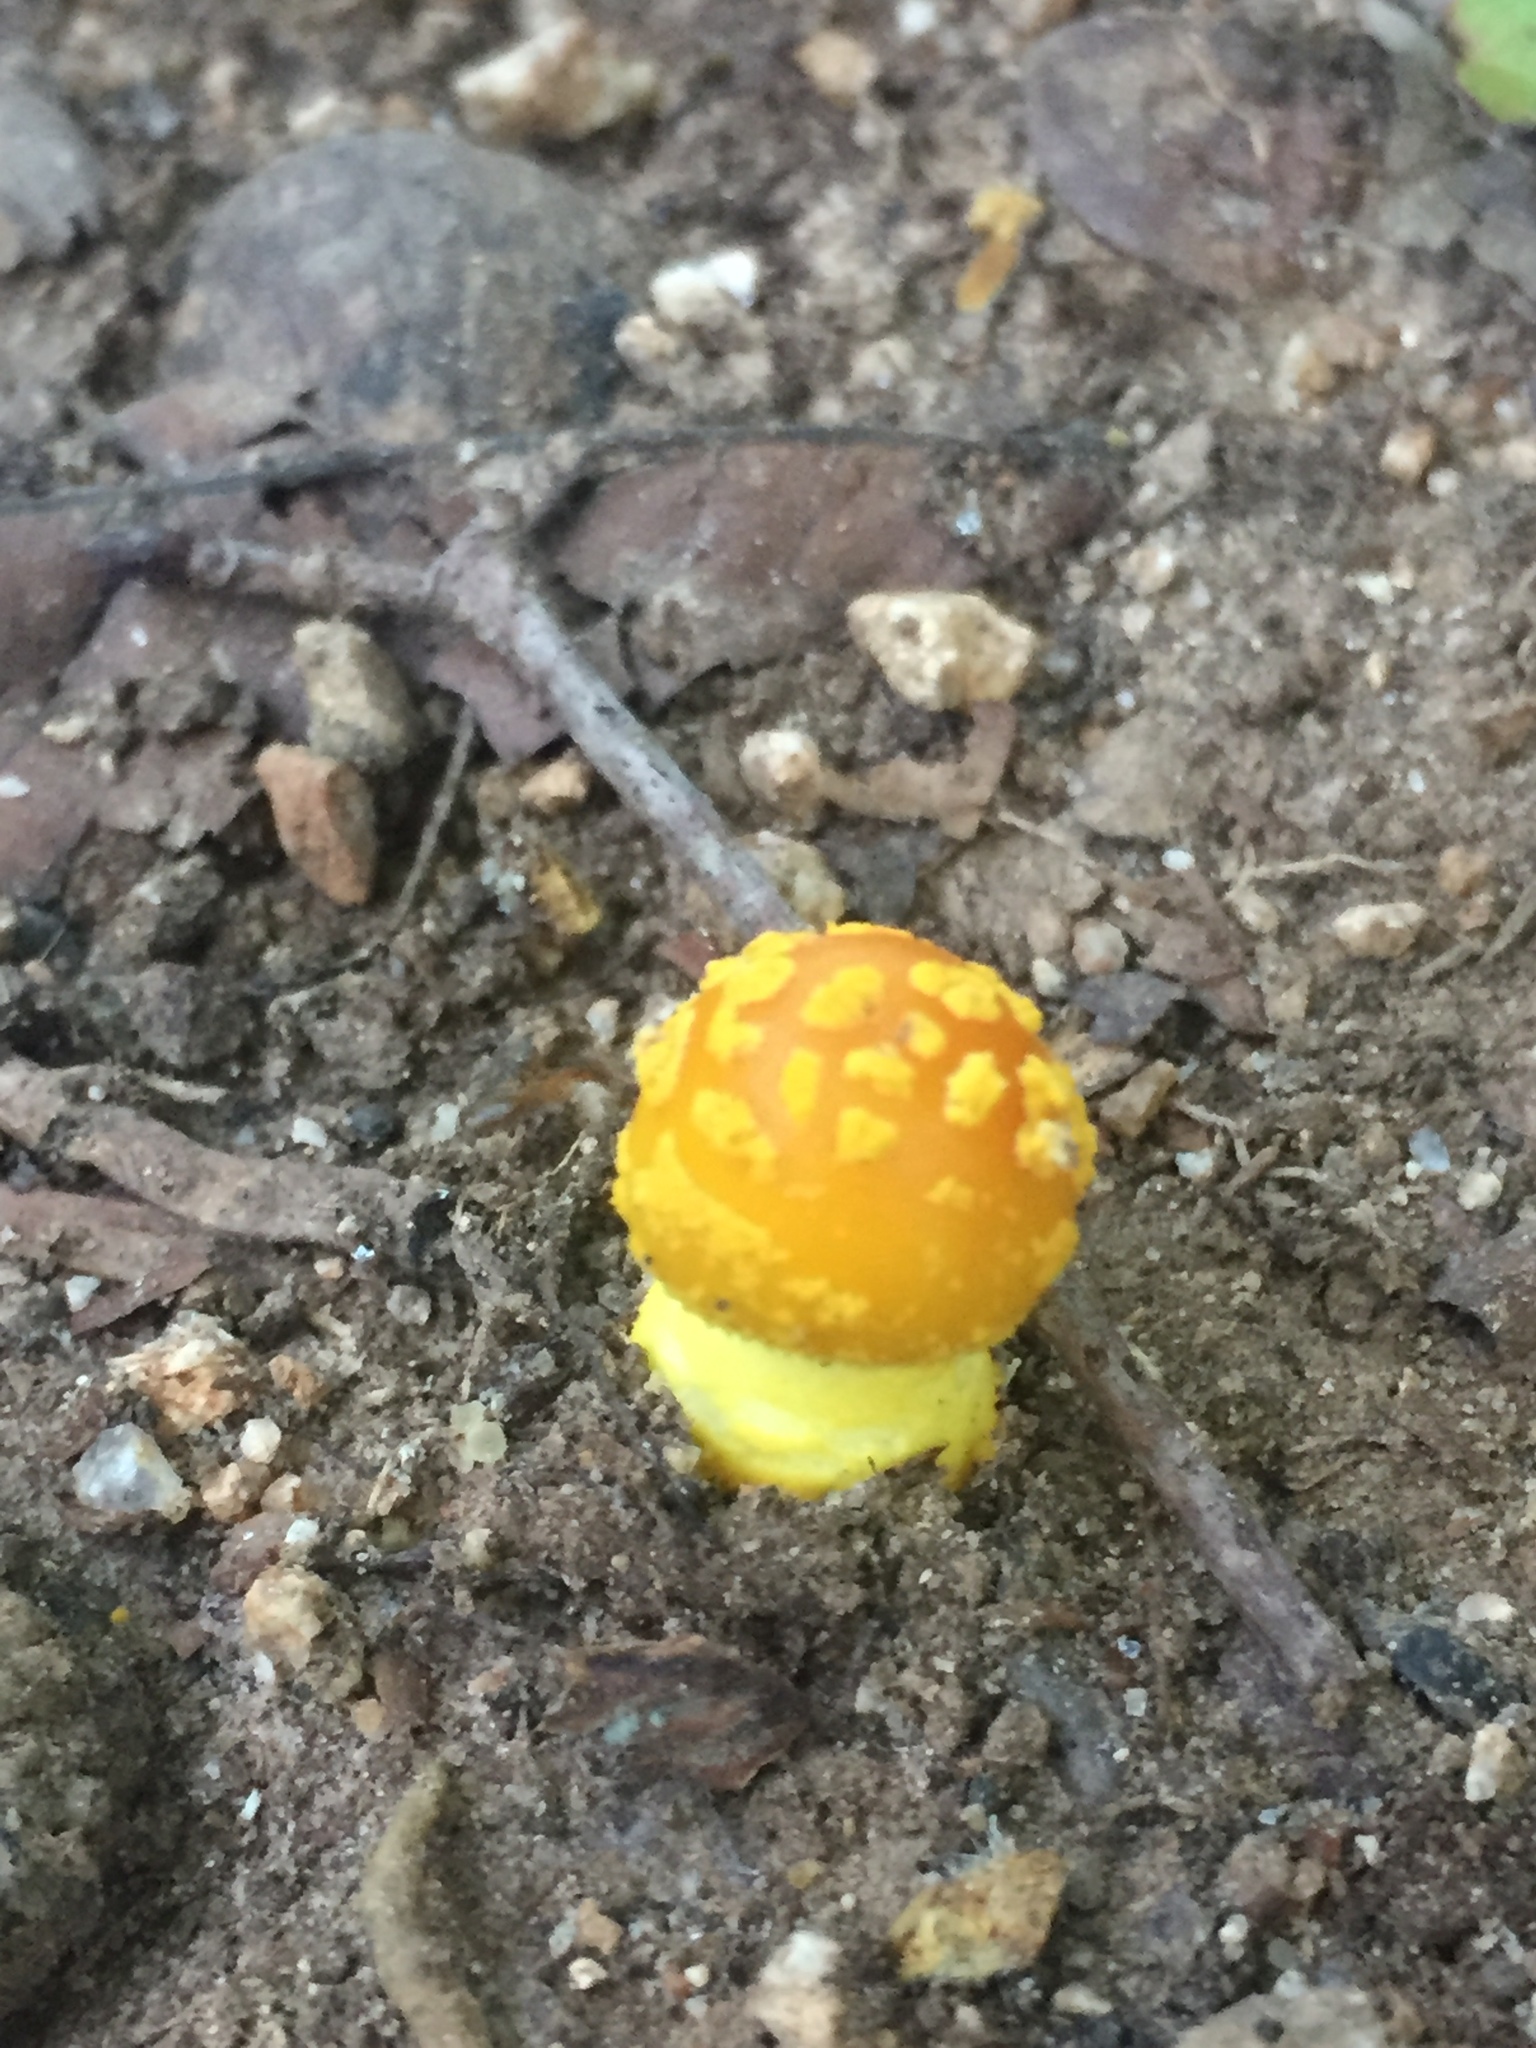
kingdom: Fungi
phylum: Basidiomycota
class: Agaricomycetes
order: Agaricales
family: Amanitaceae
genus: Amanita
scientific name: Amanita flavoconia
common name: Yellow patches
